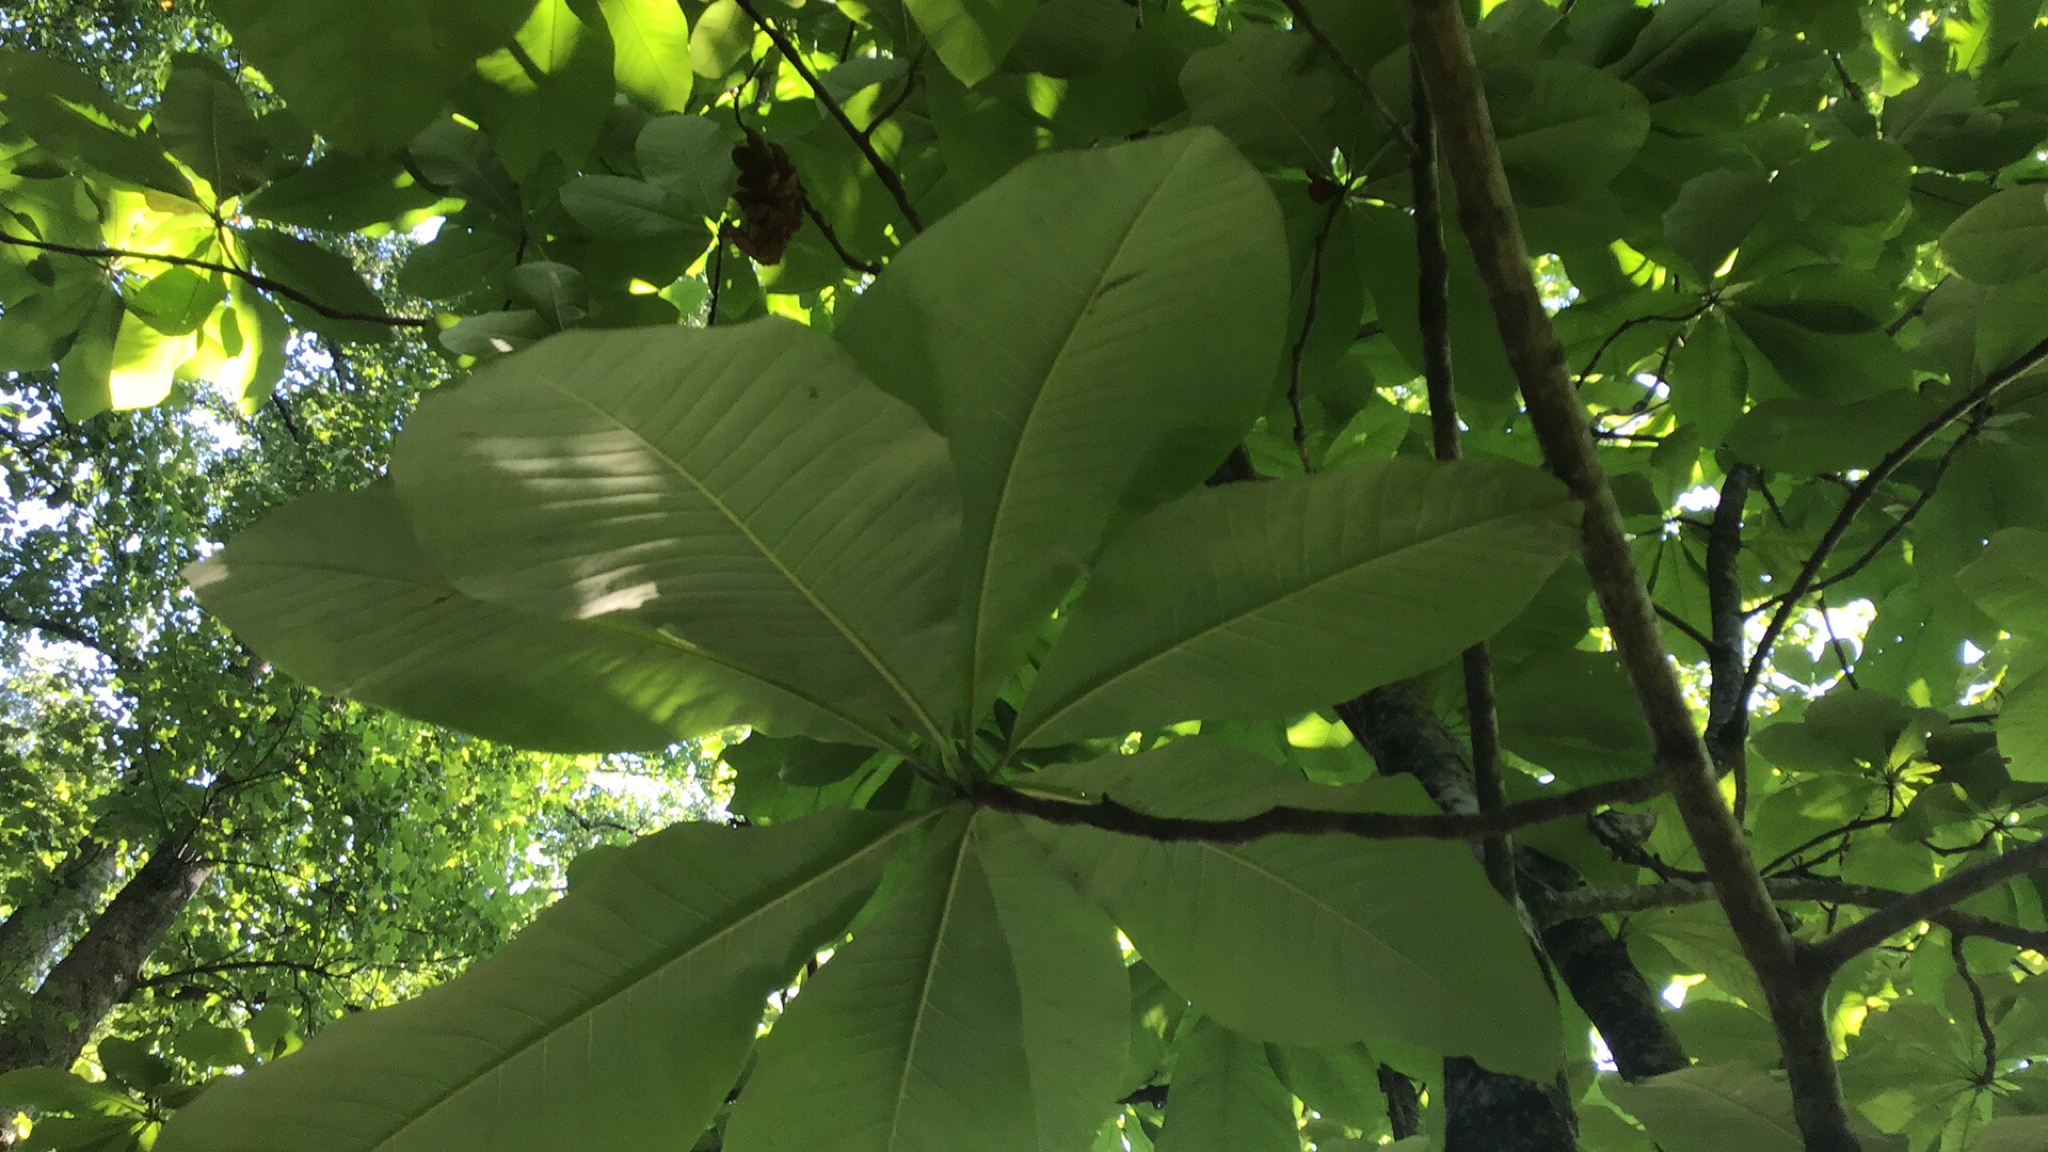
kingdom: Plantae
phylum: Tracheophyta
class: Magnoliopsida
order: Magnoliales
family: Magnoliaceae
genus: Magnolia
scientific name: Magnolia tripetala
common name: Umbrella magnolia
